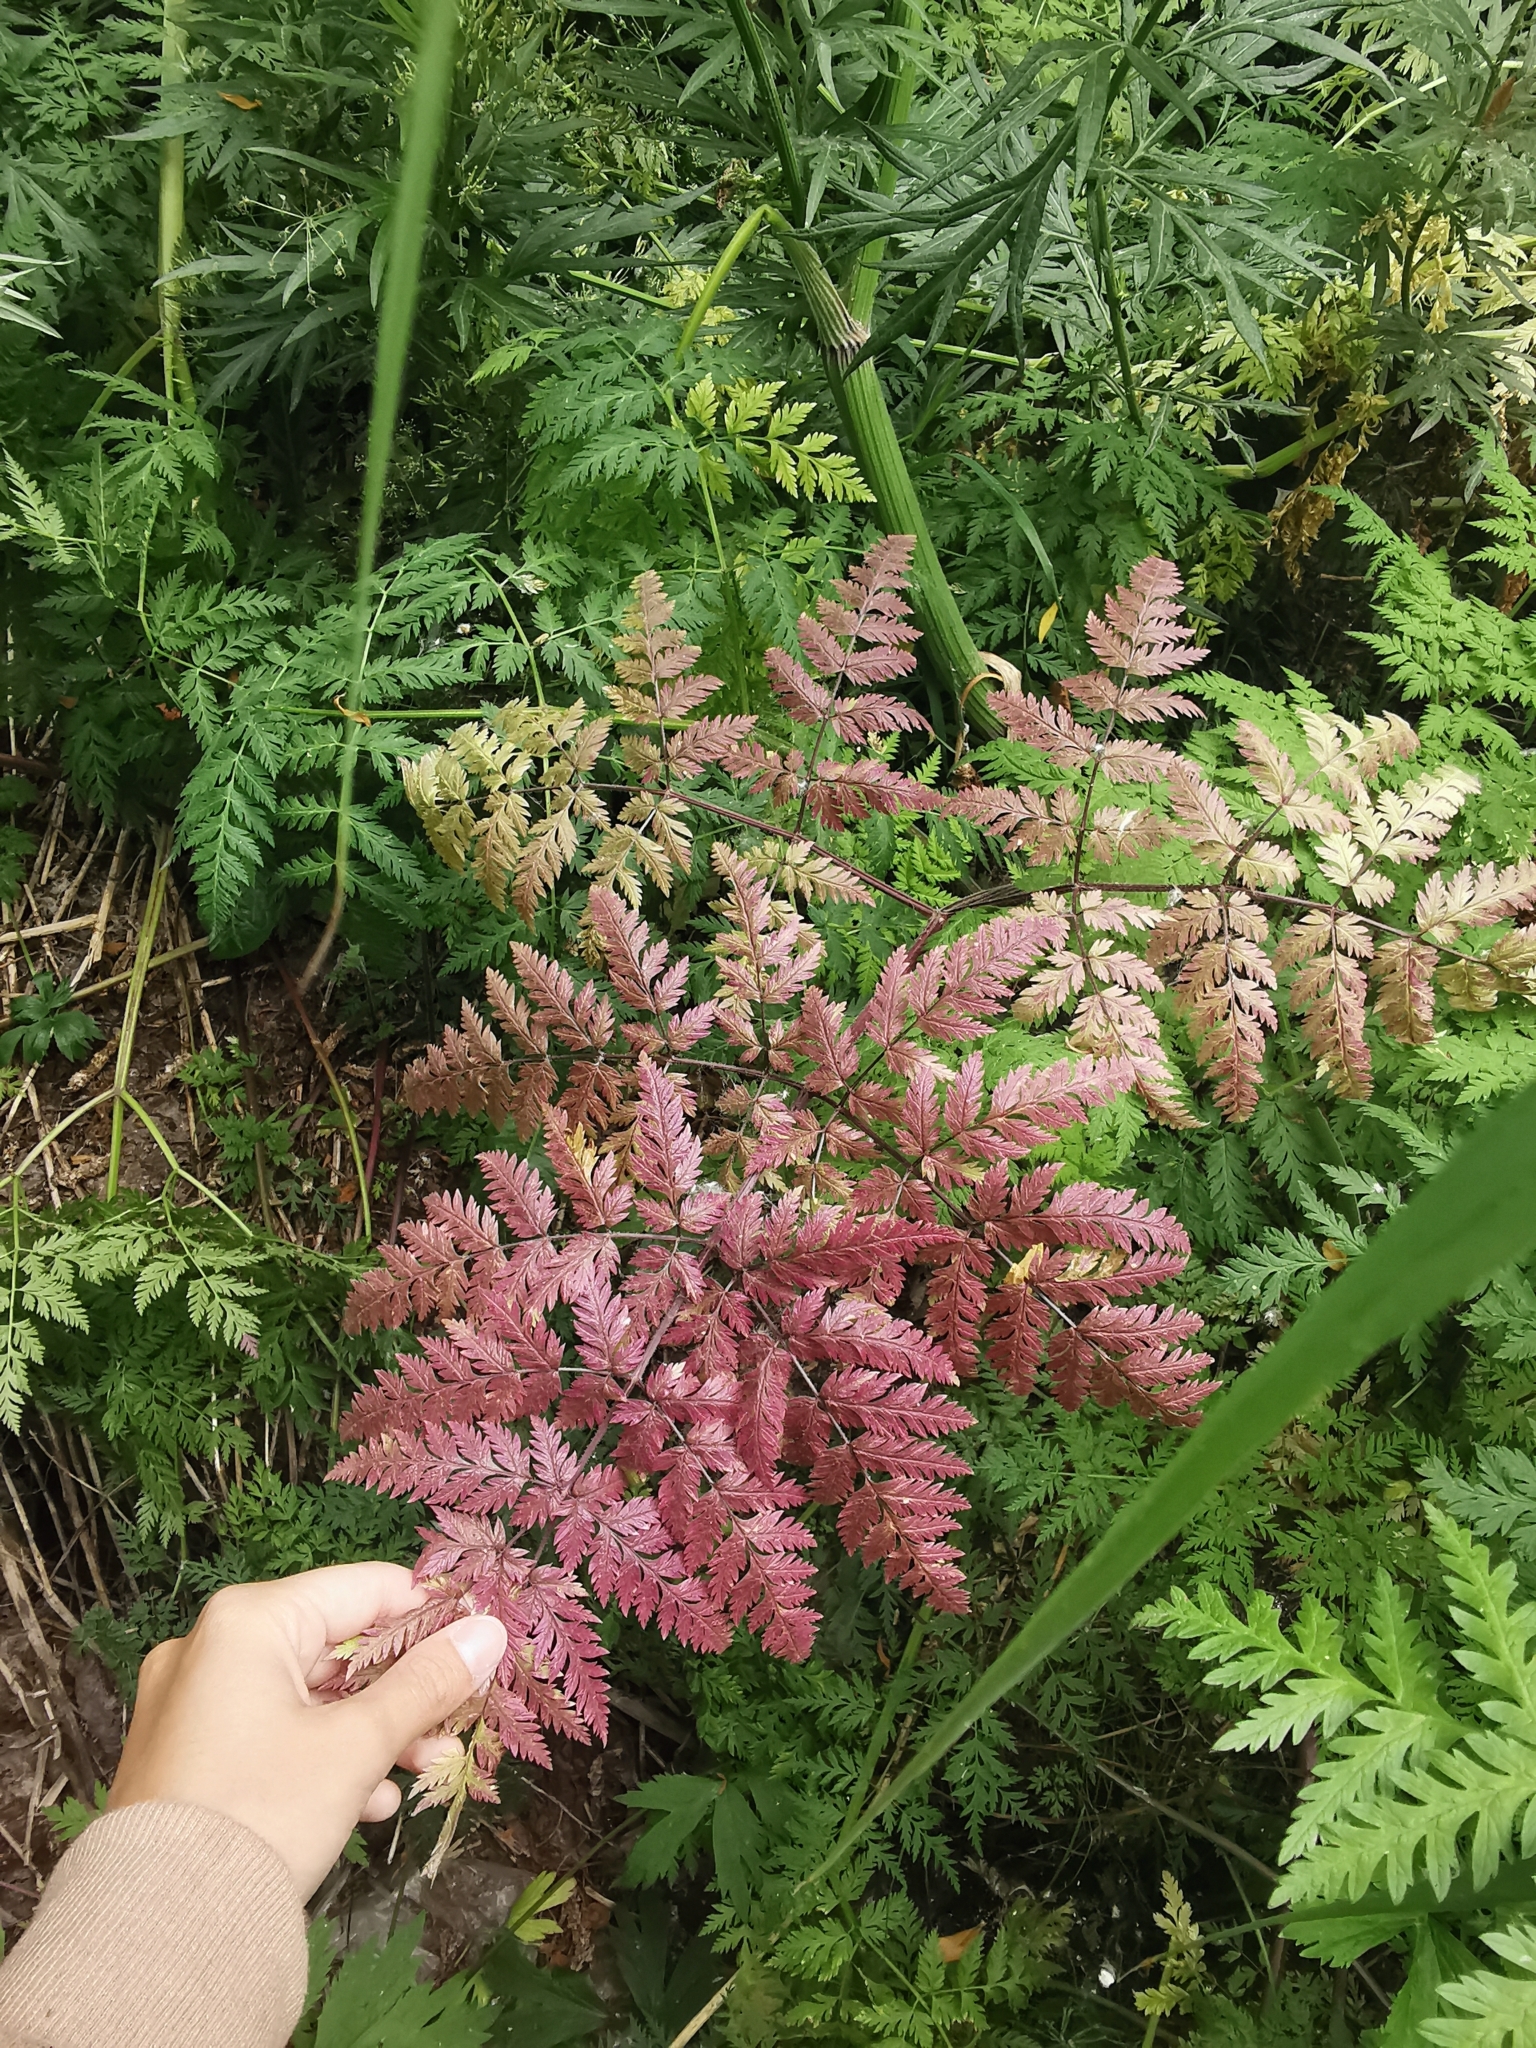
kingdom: Plantae
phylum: Tracheophyta
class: Magnoliopsida
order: Apiales
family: Apiaceae
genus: Anthriscus
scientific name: Anthriscus sylvestris
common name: Cow parsley
